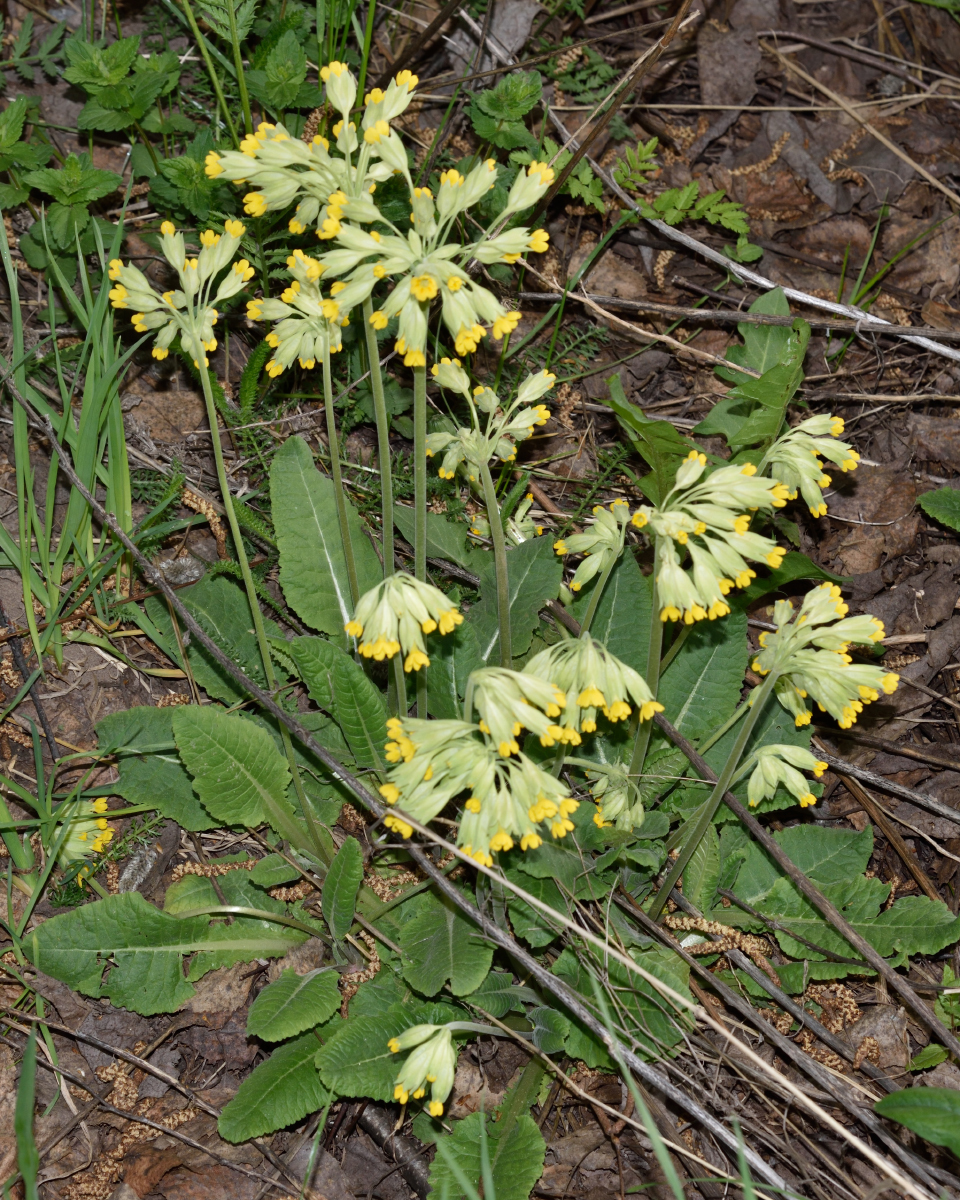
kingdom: Plantae
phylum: Tracheophyta
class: Magnoliopsida
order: Ericales
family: Primulaceae
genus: Primula
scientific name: Primula veris
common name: Cowslip
